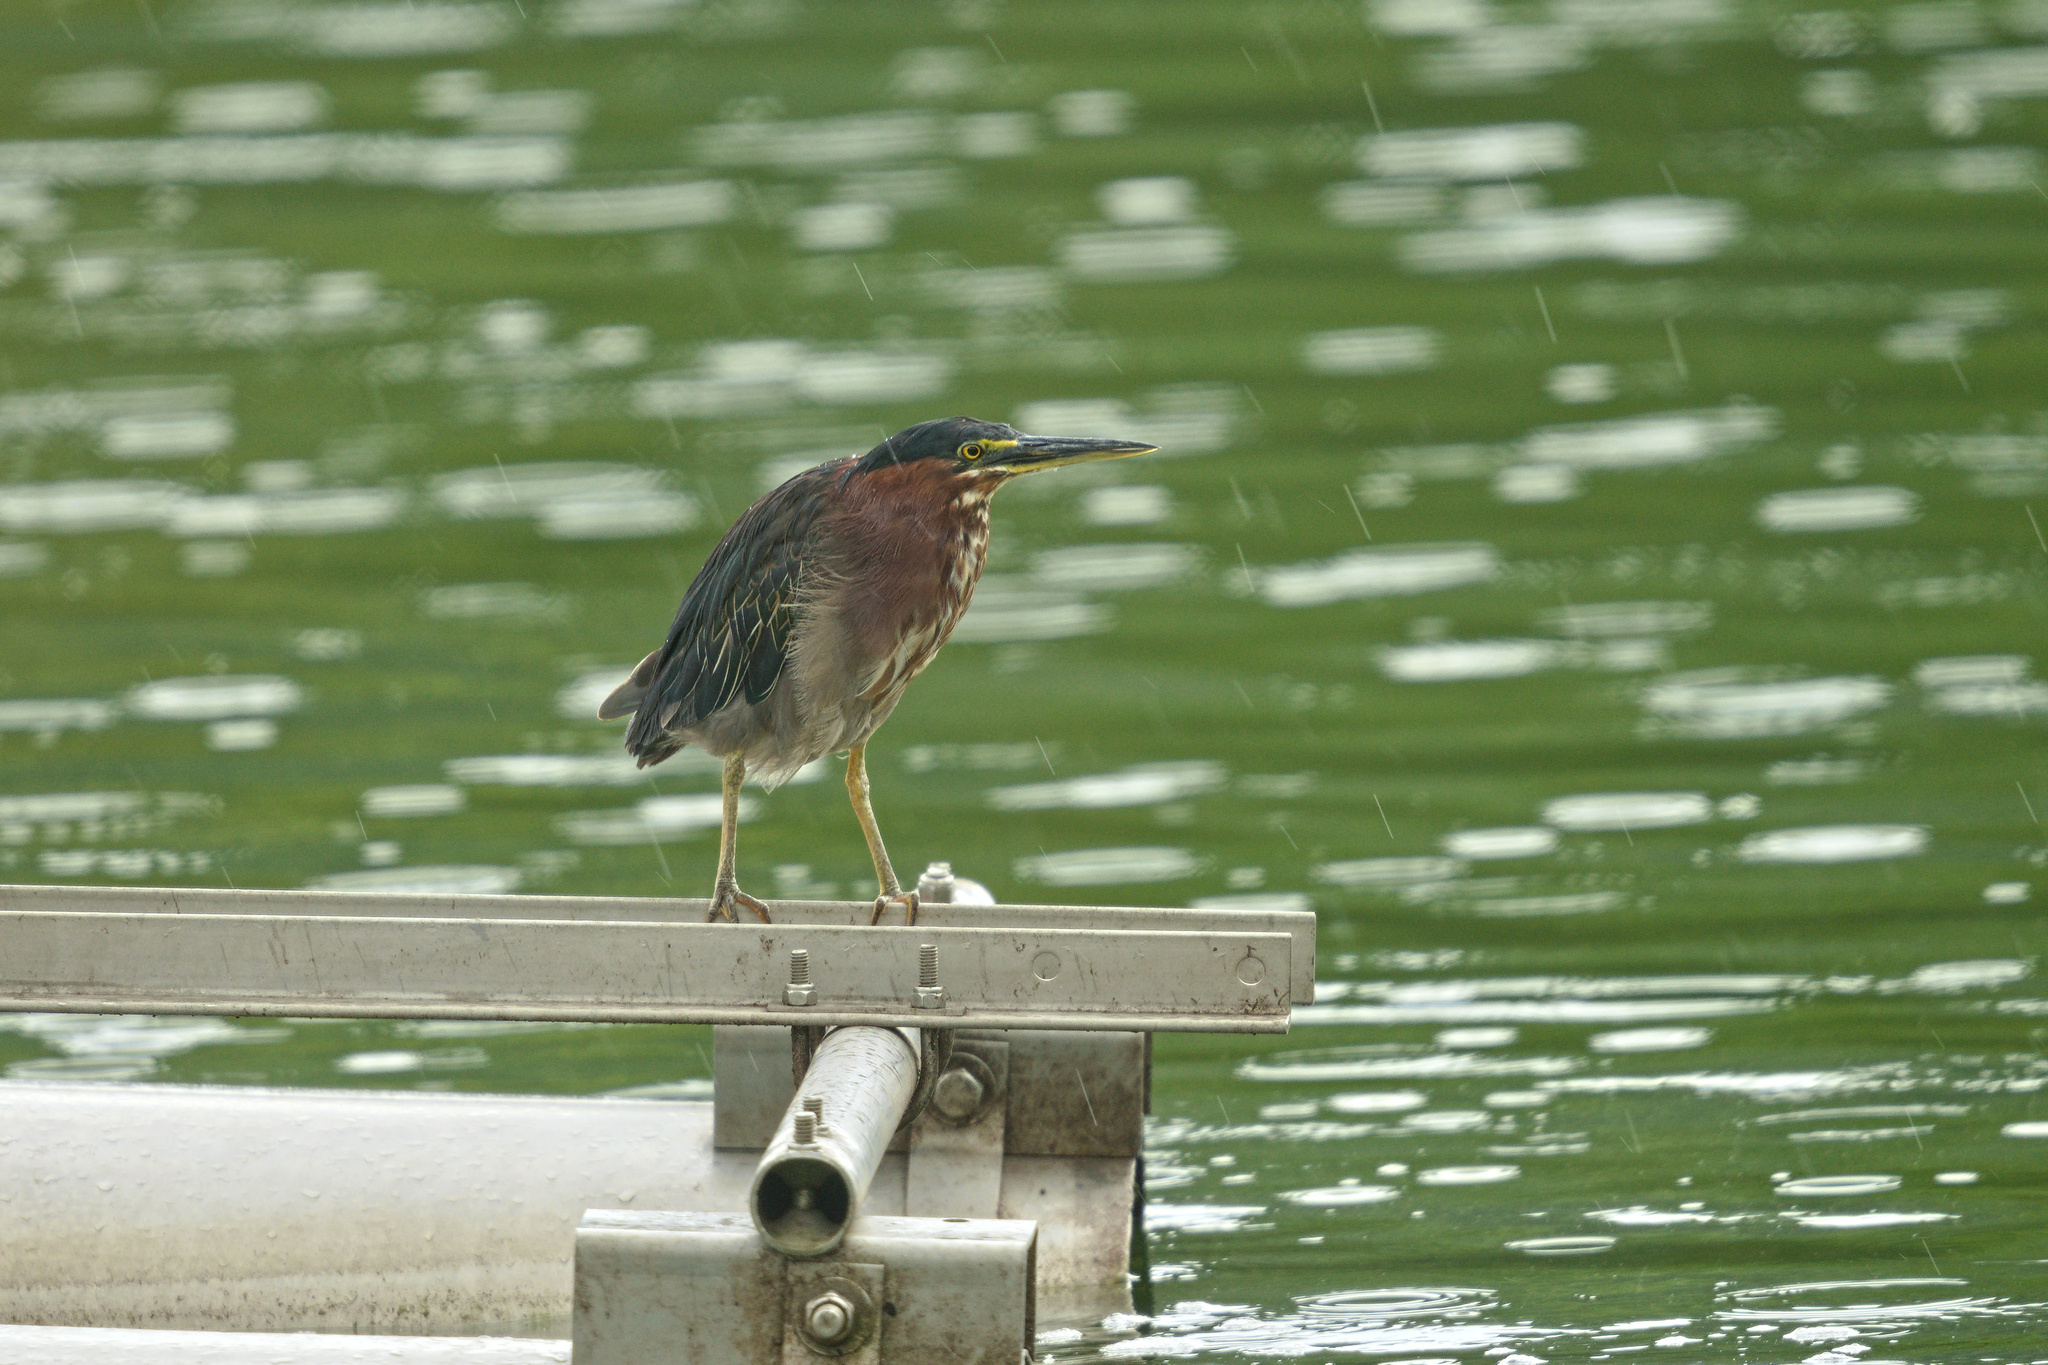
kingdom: Animalia
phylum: Chordata
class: Aves
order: Pelecaniformes
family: Ardeidae
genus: Butorides
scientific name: Butorides virescens
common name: Green heron
